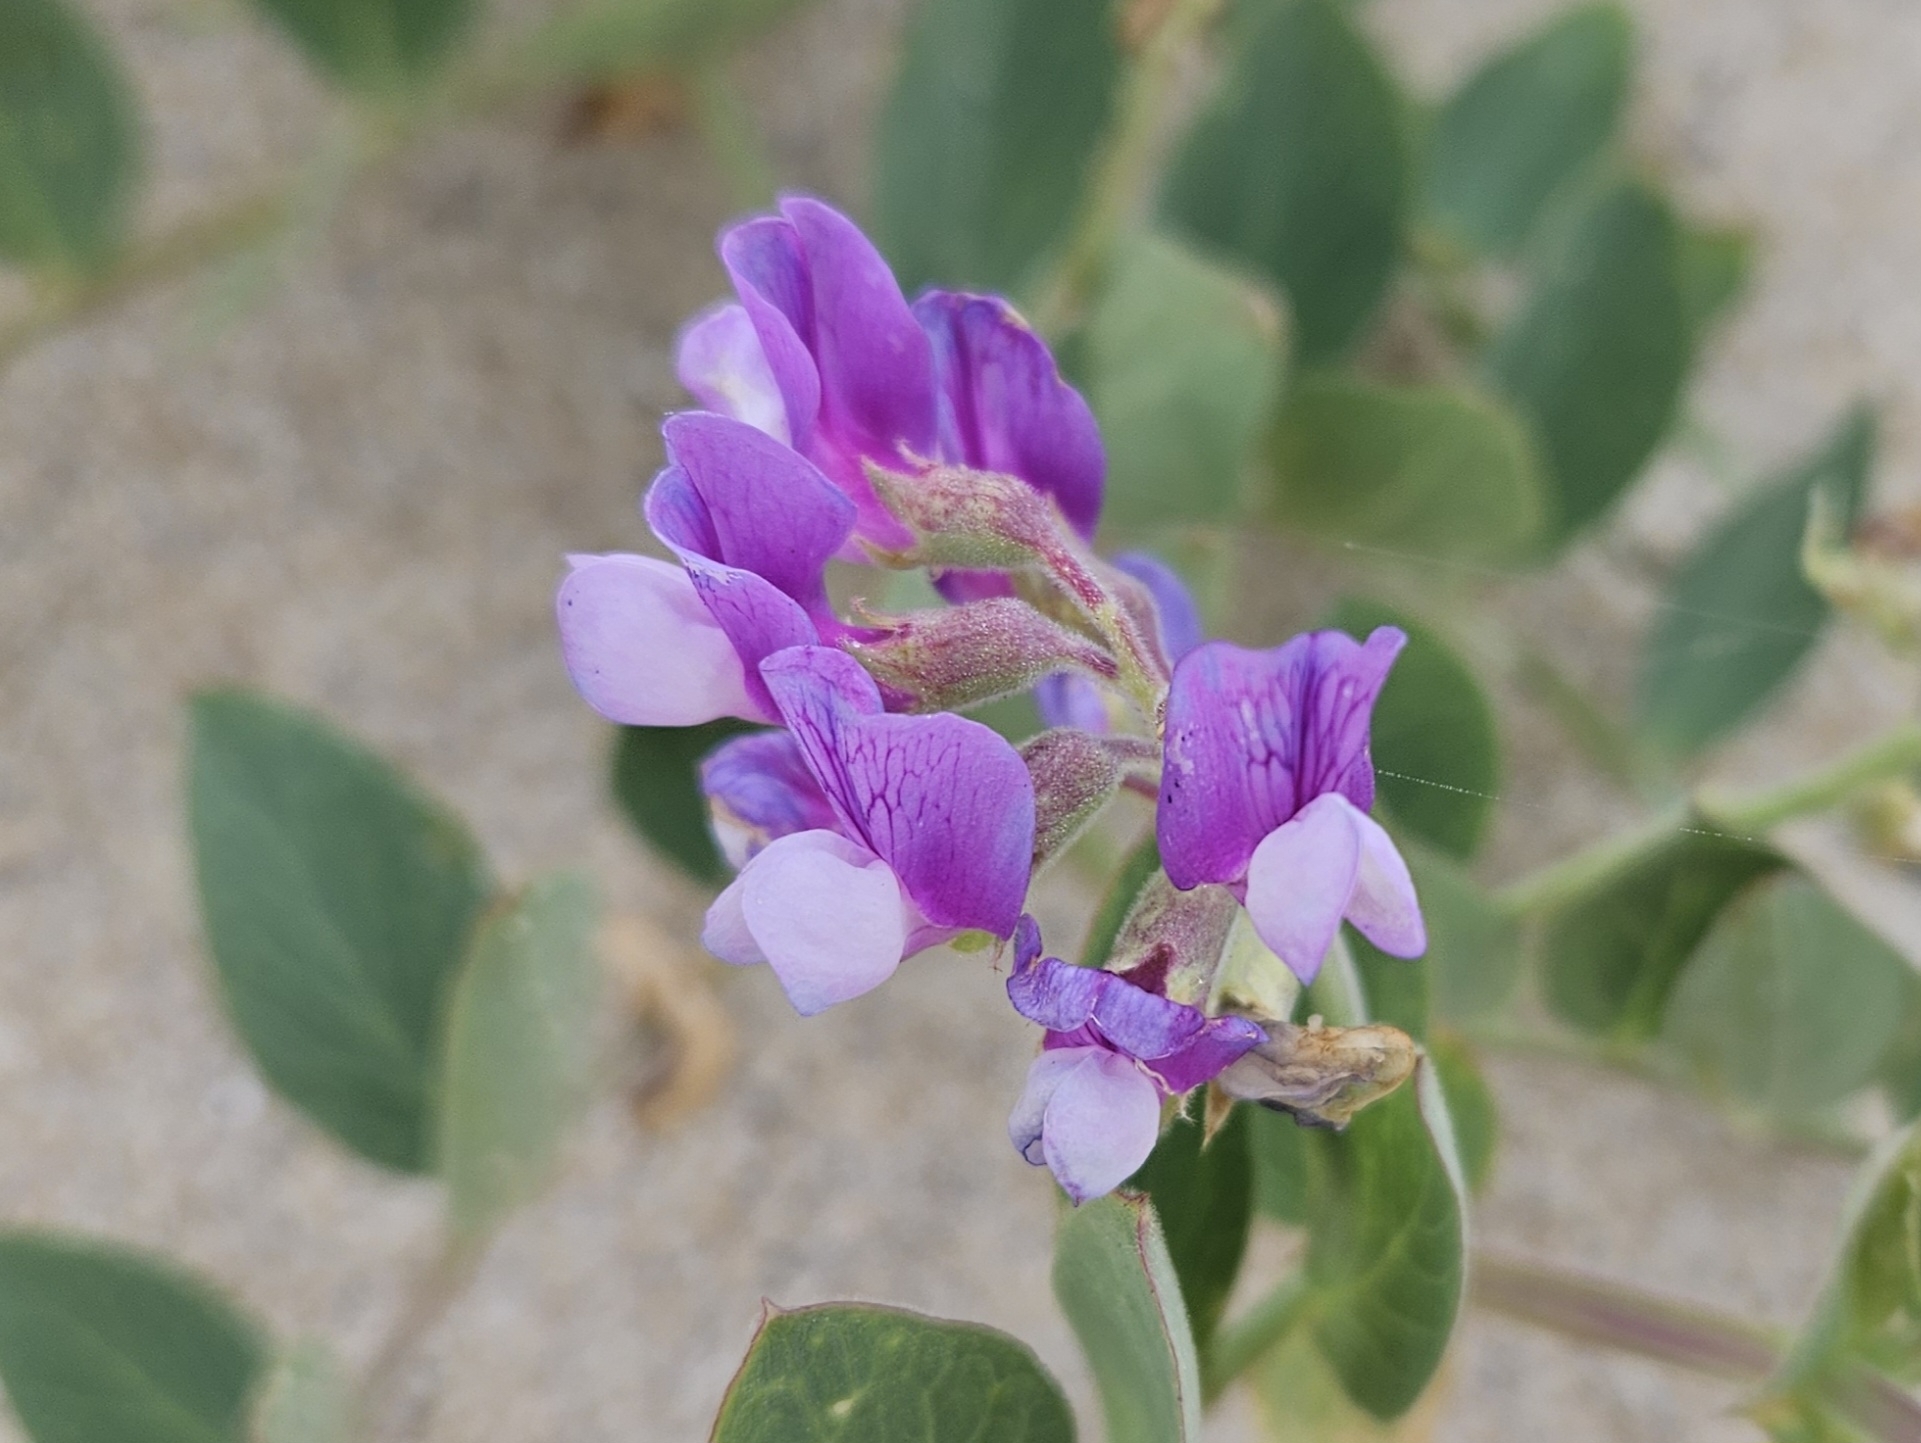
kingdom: Plantae
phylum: Tracheophyta
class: Magnoliopsida
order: Fabales
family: Fabaceae
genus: Lathyrus
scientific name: Lathyrus japonicus
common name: Sea pea
